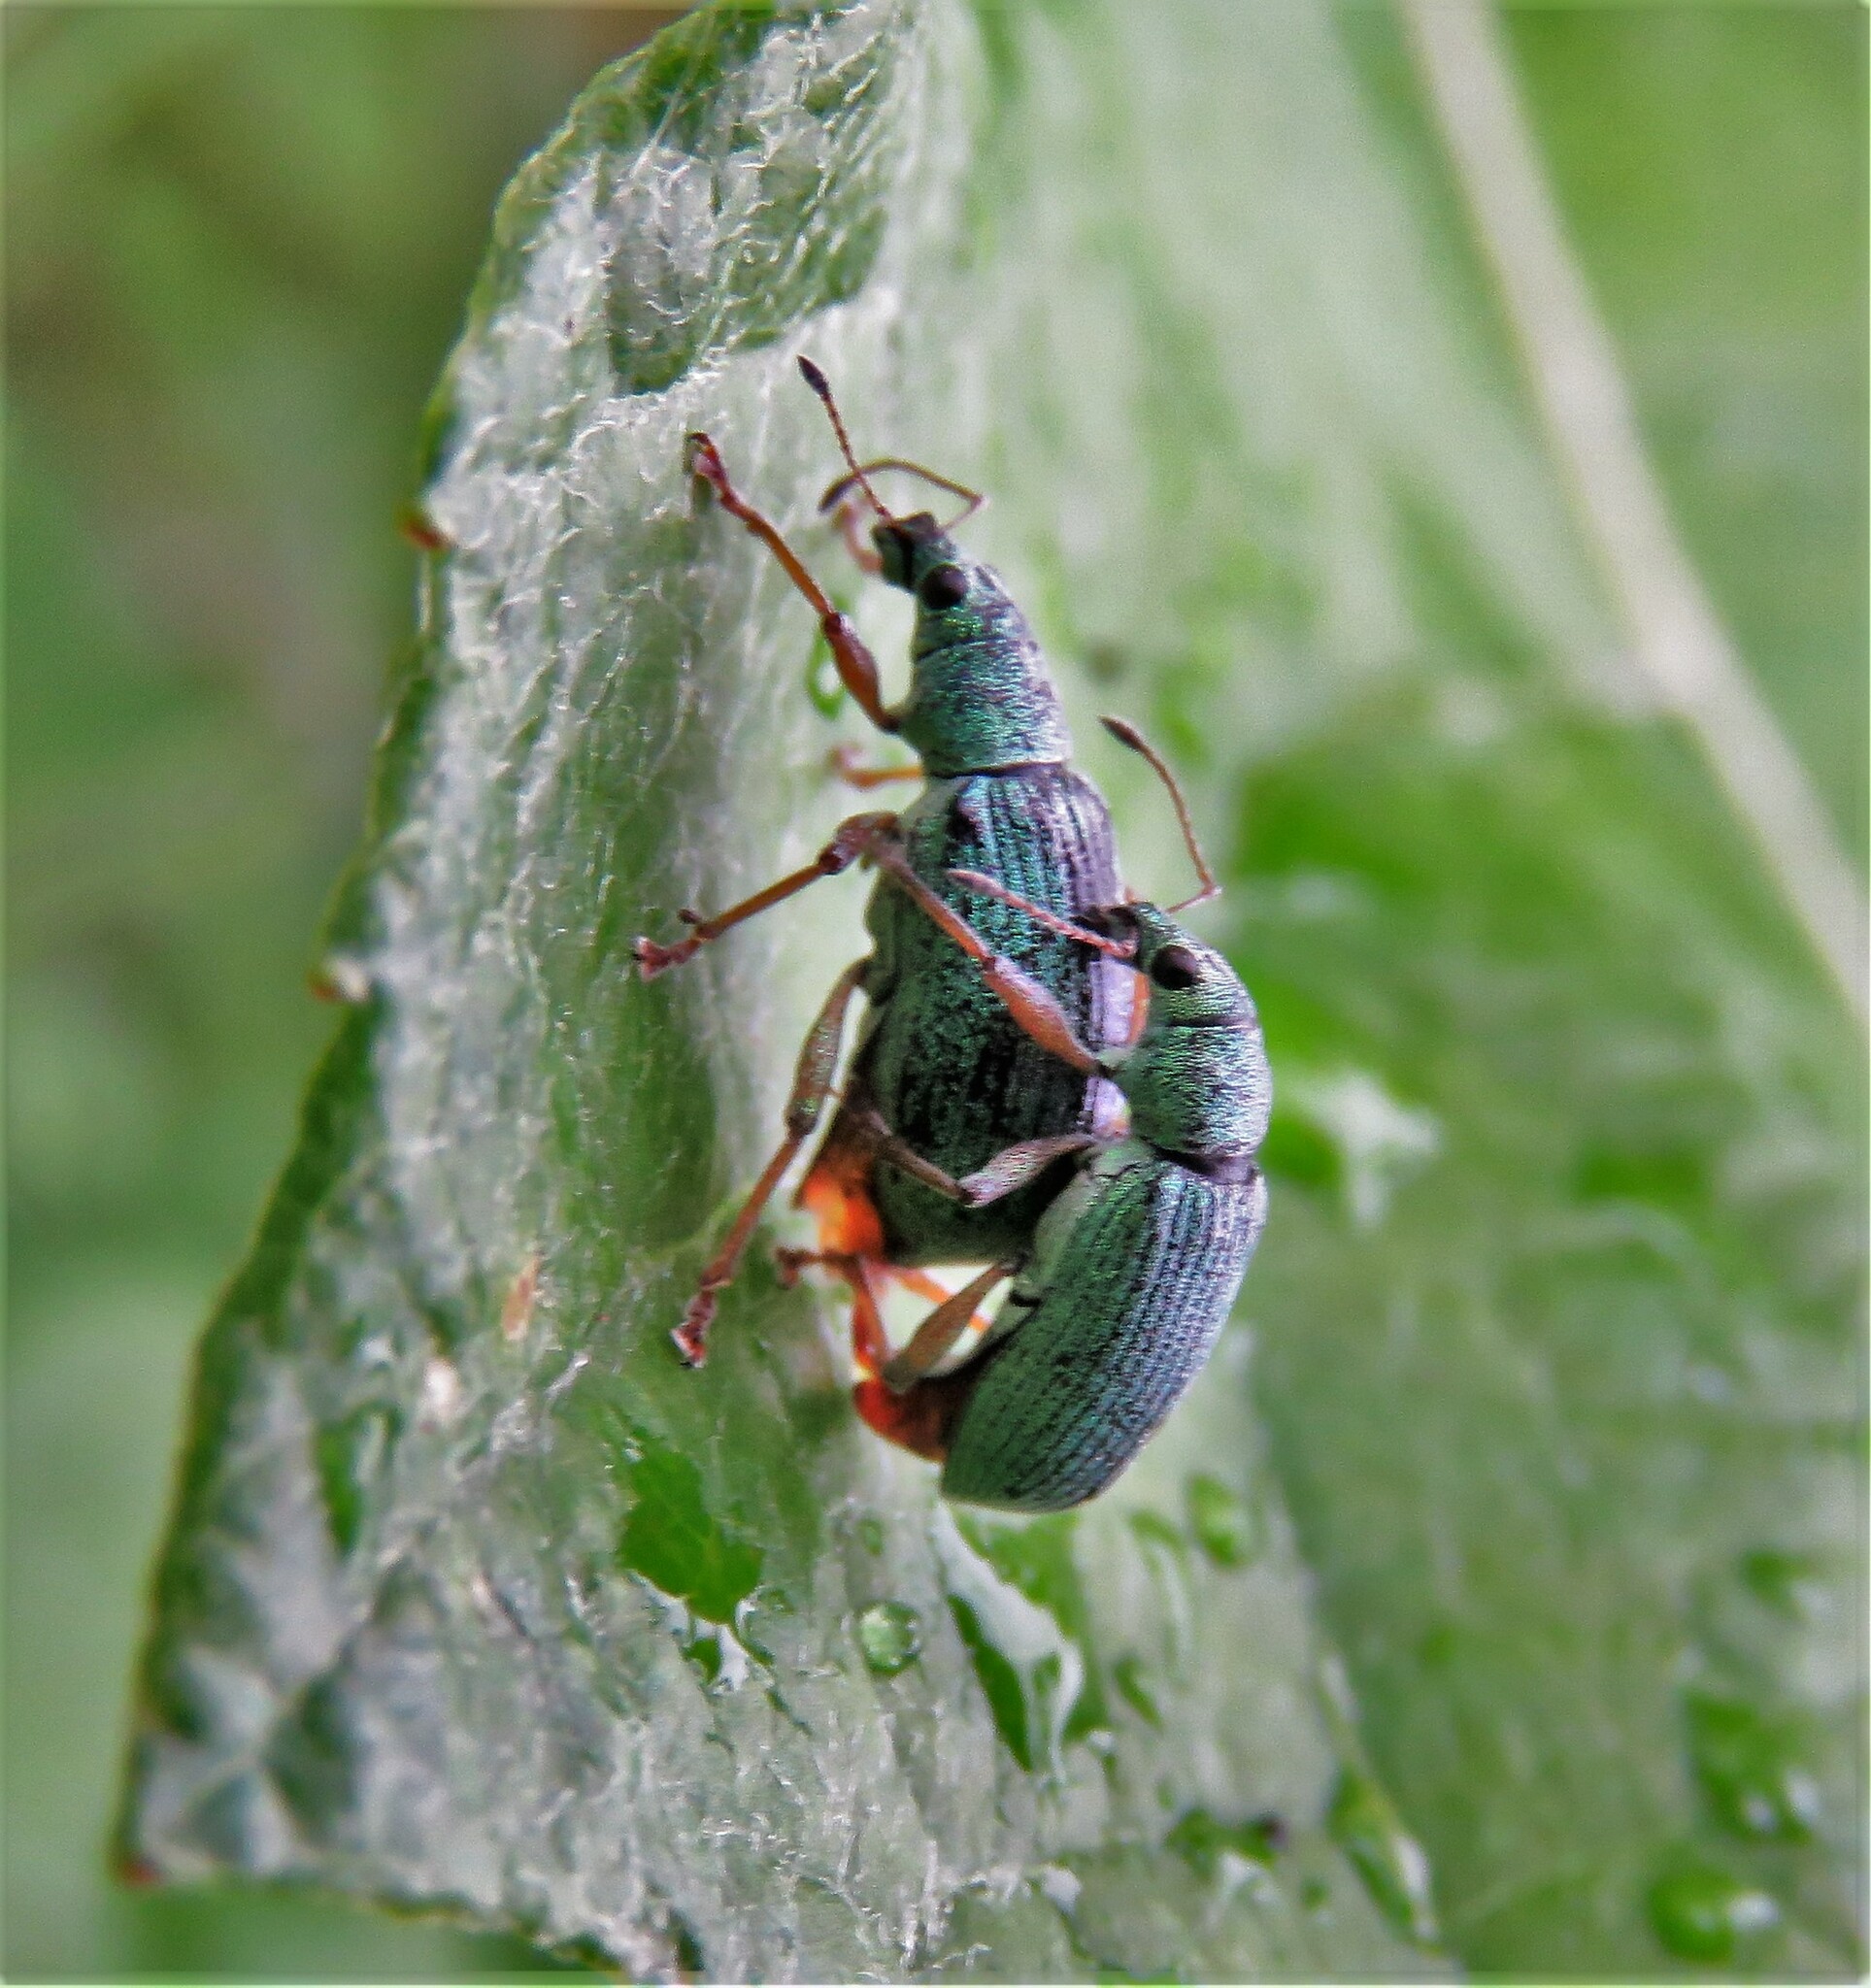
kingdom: Animalia
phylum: Arthropoda
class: Insecta
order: Coleoptera
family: Curculionidae
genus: Polydrusus
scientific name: Polydrusus formosus
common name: Weevil
